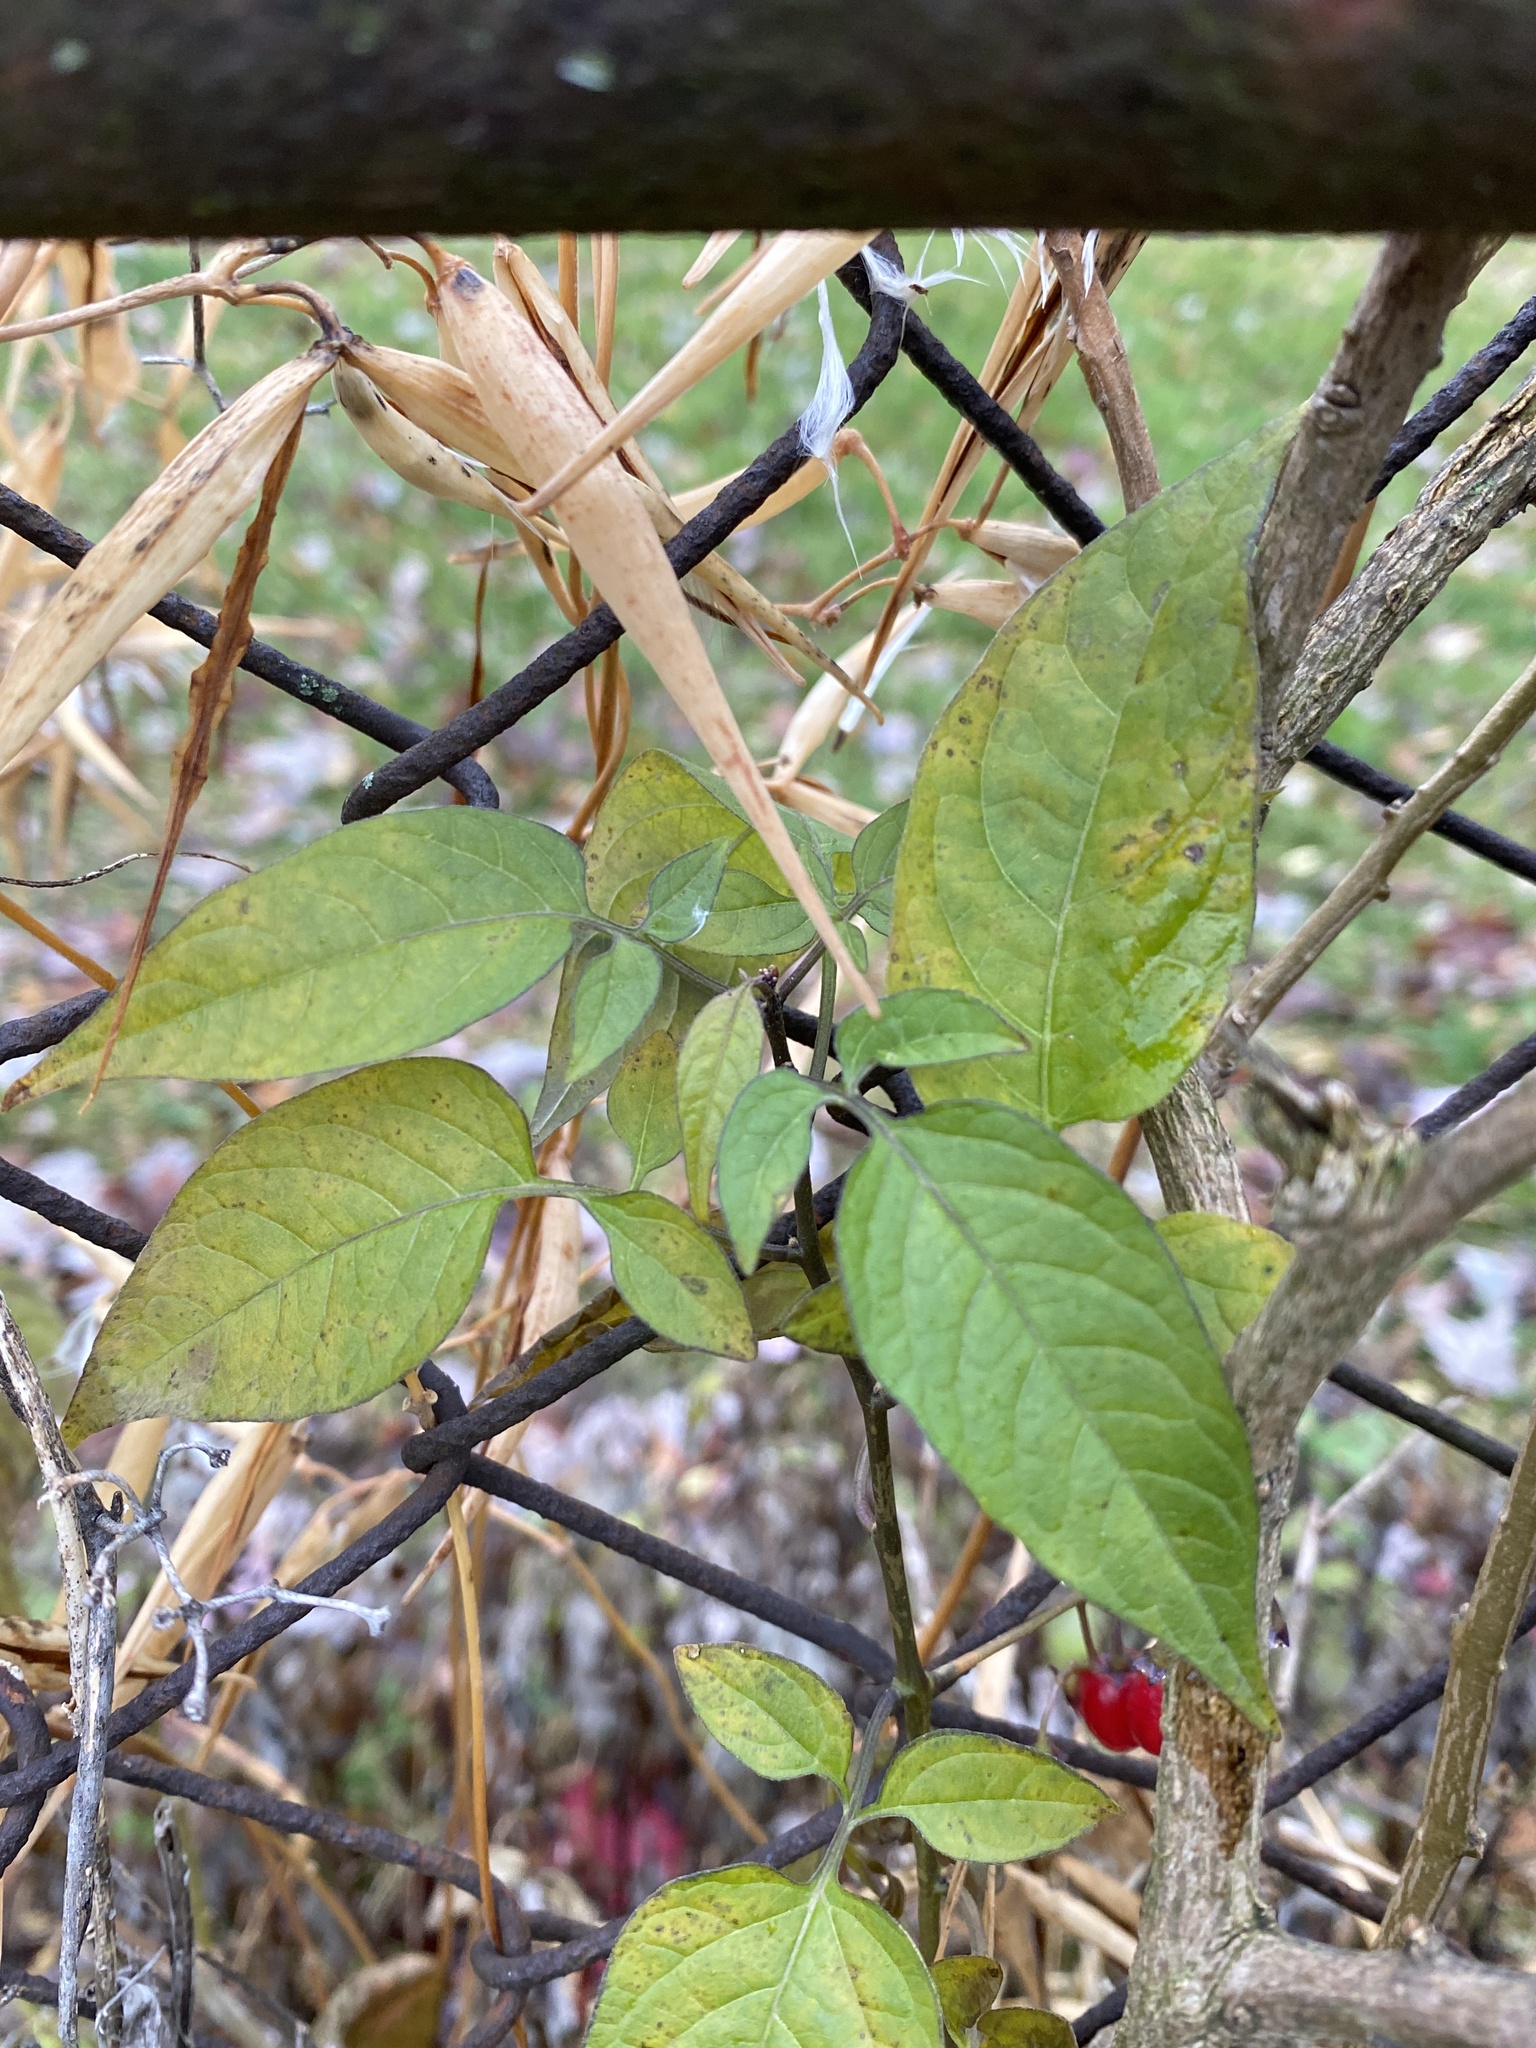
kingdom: Plantae
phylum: Tracheophyta
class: Magnoliopsida
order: Solanales
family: Solanaceae
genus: Solanum
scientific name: Solanum dulcamara
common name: Climbing nightshade
